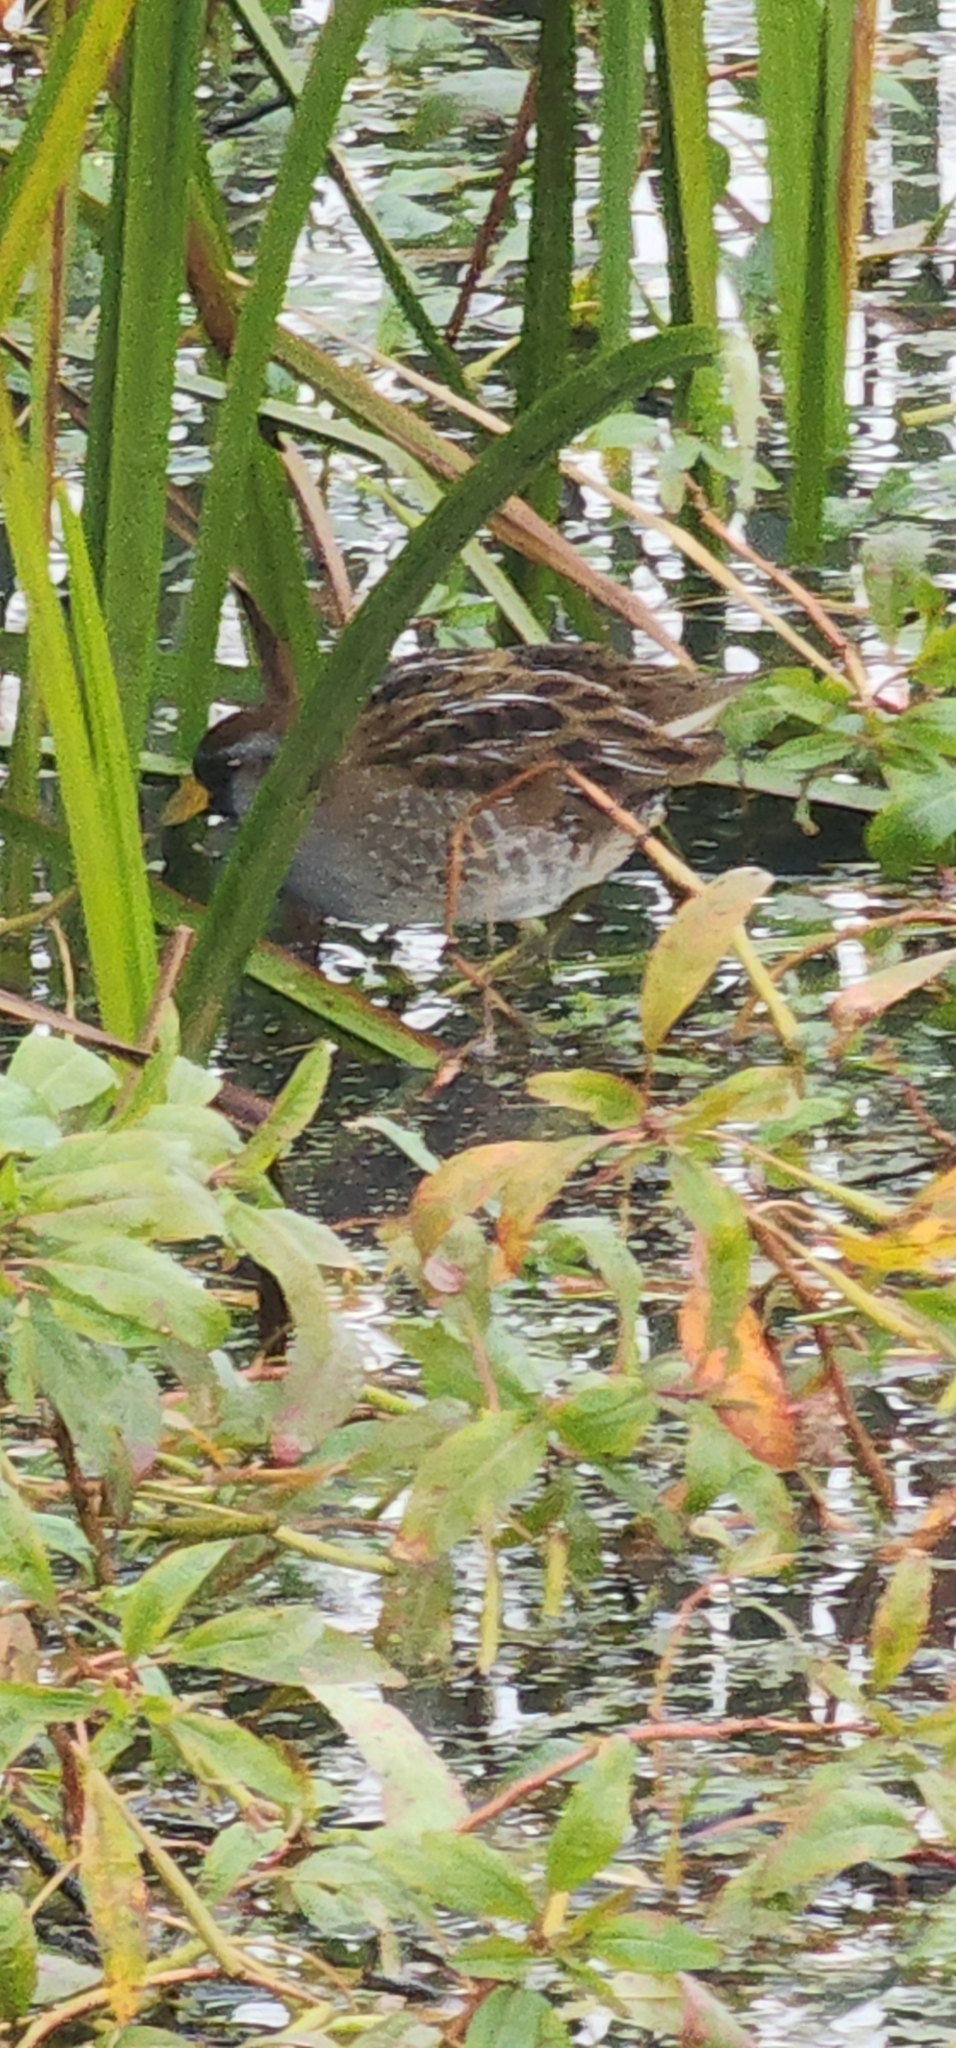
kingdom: Animalia
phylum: Chordata
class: Aves
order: Gruiformes
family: Rallidae
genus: Porzana
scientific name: Porzana carolina
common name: Sora
